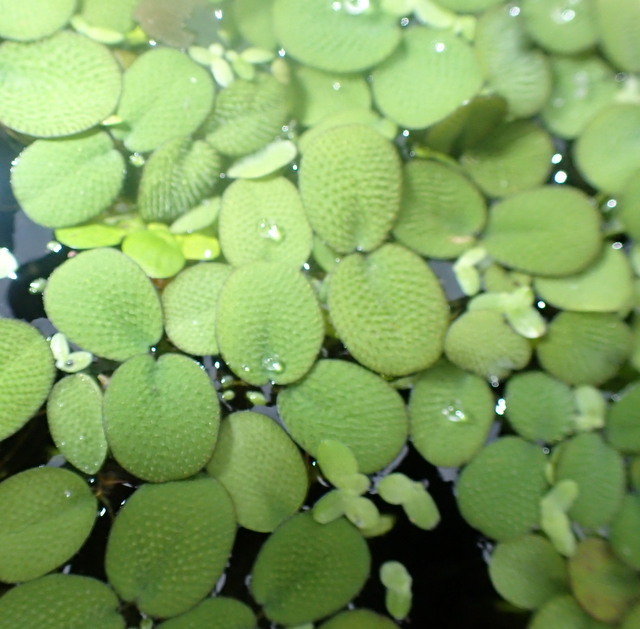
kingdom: Plantae
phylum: Tracheophyta
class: Polypodiopsida
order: Salviniales
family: Salviniaceae
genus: Salvinia
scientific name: Salvinia minima
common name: Water spangles
